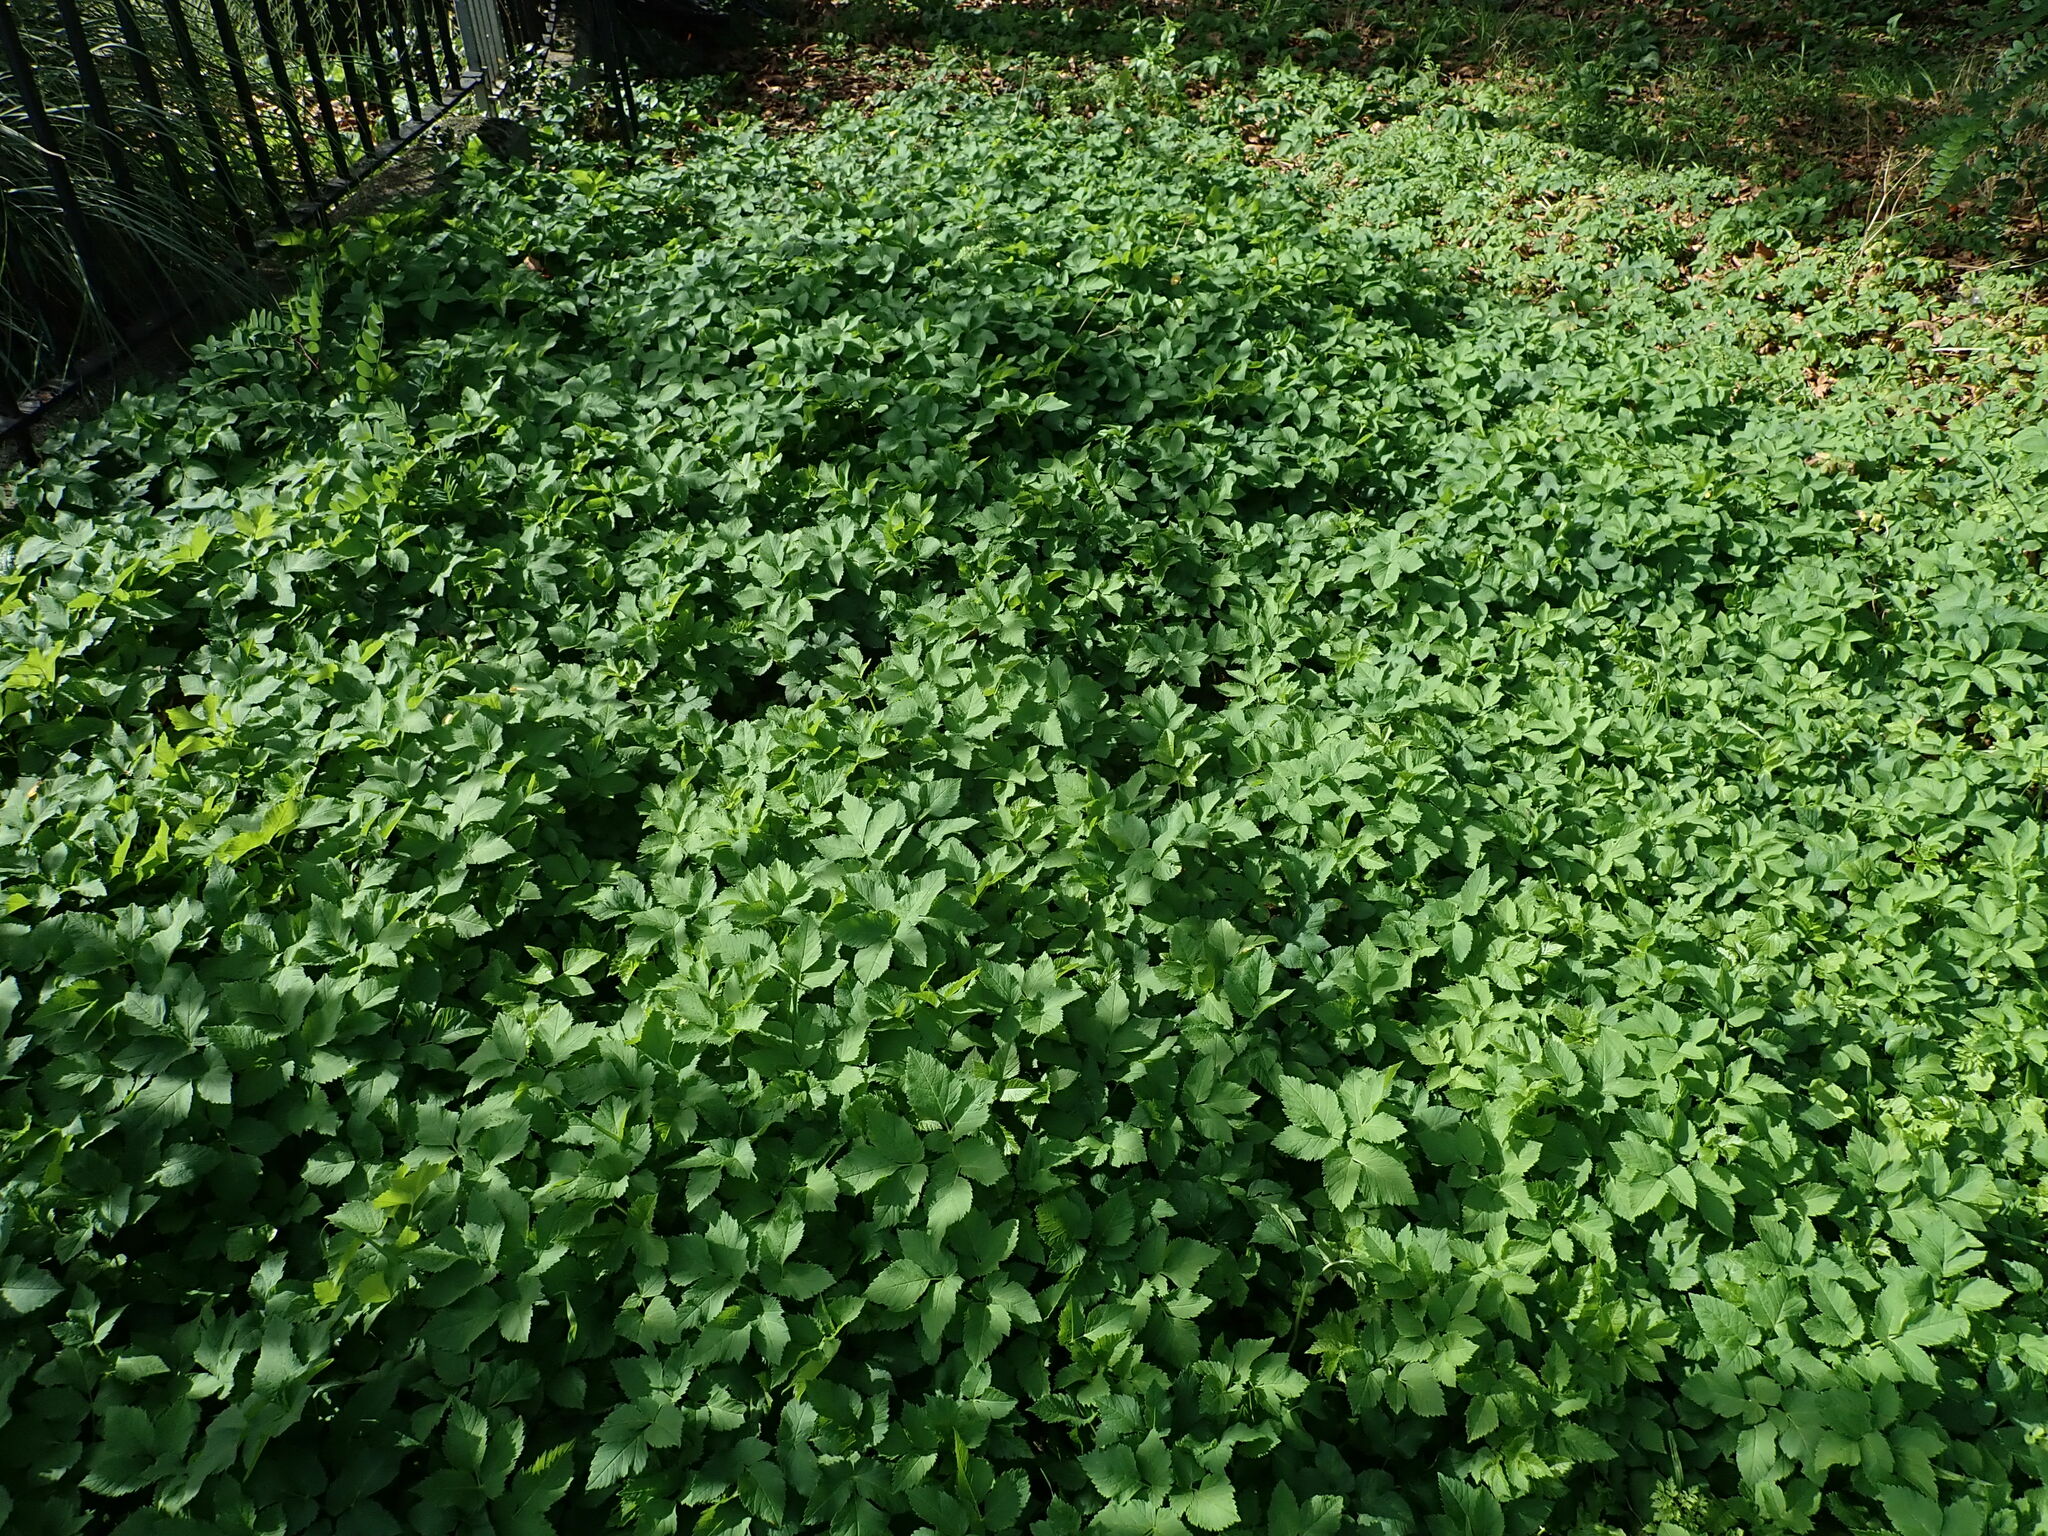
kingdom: Plantae
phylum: Tracheophyta
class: Magnoliopsida
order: Apiales
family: Apiaceae
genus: Aegopodium
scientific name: Aegopodium podagraria
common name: Ground-elder
